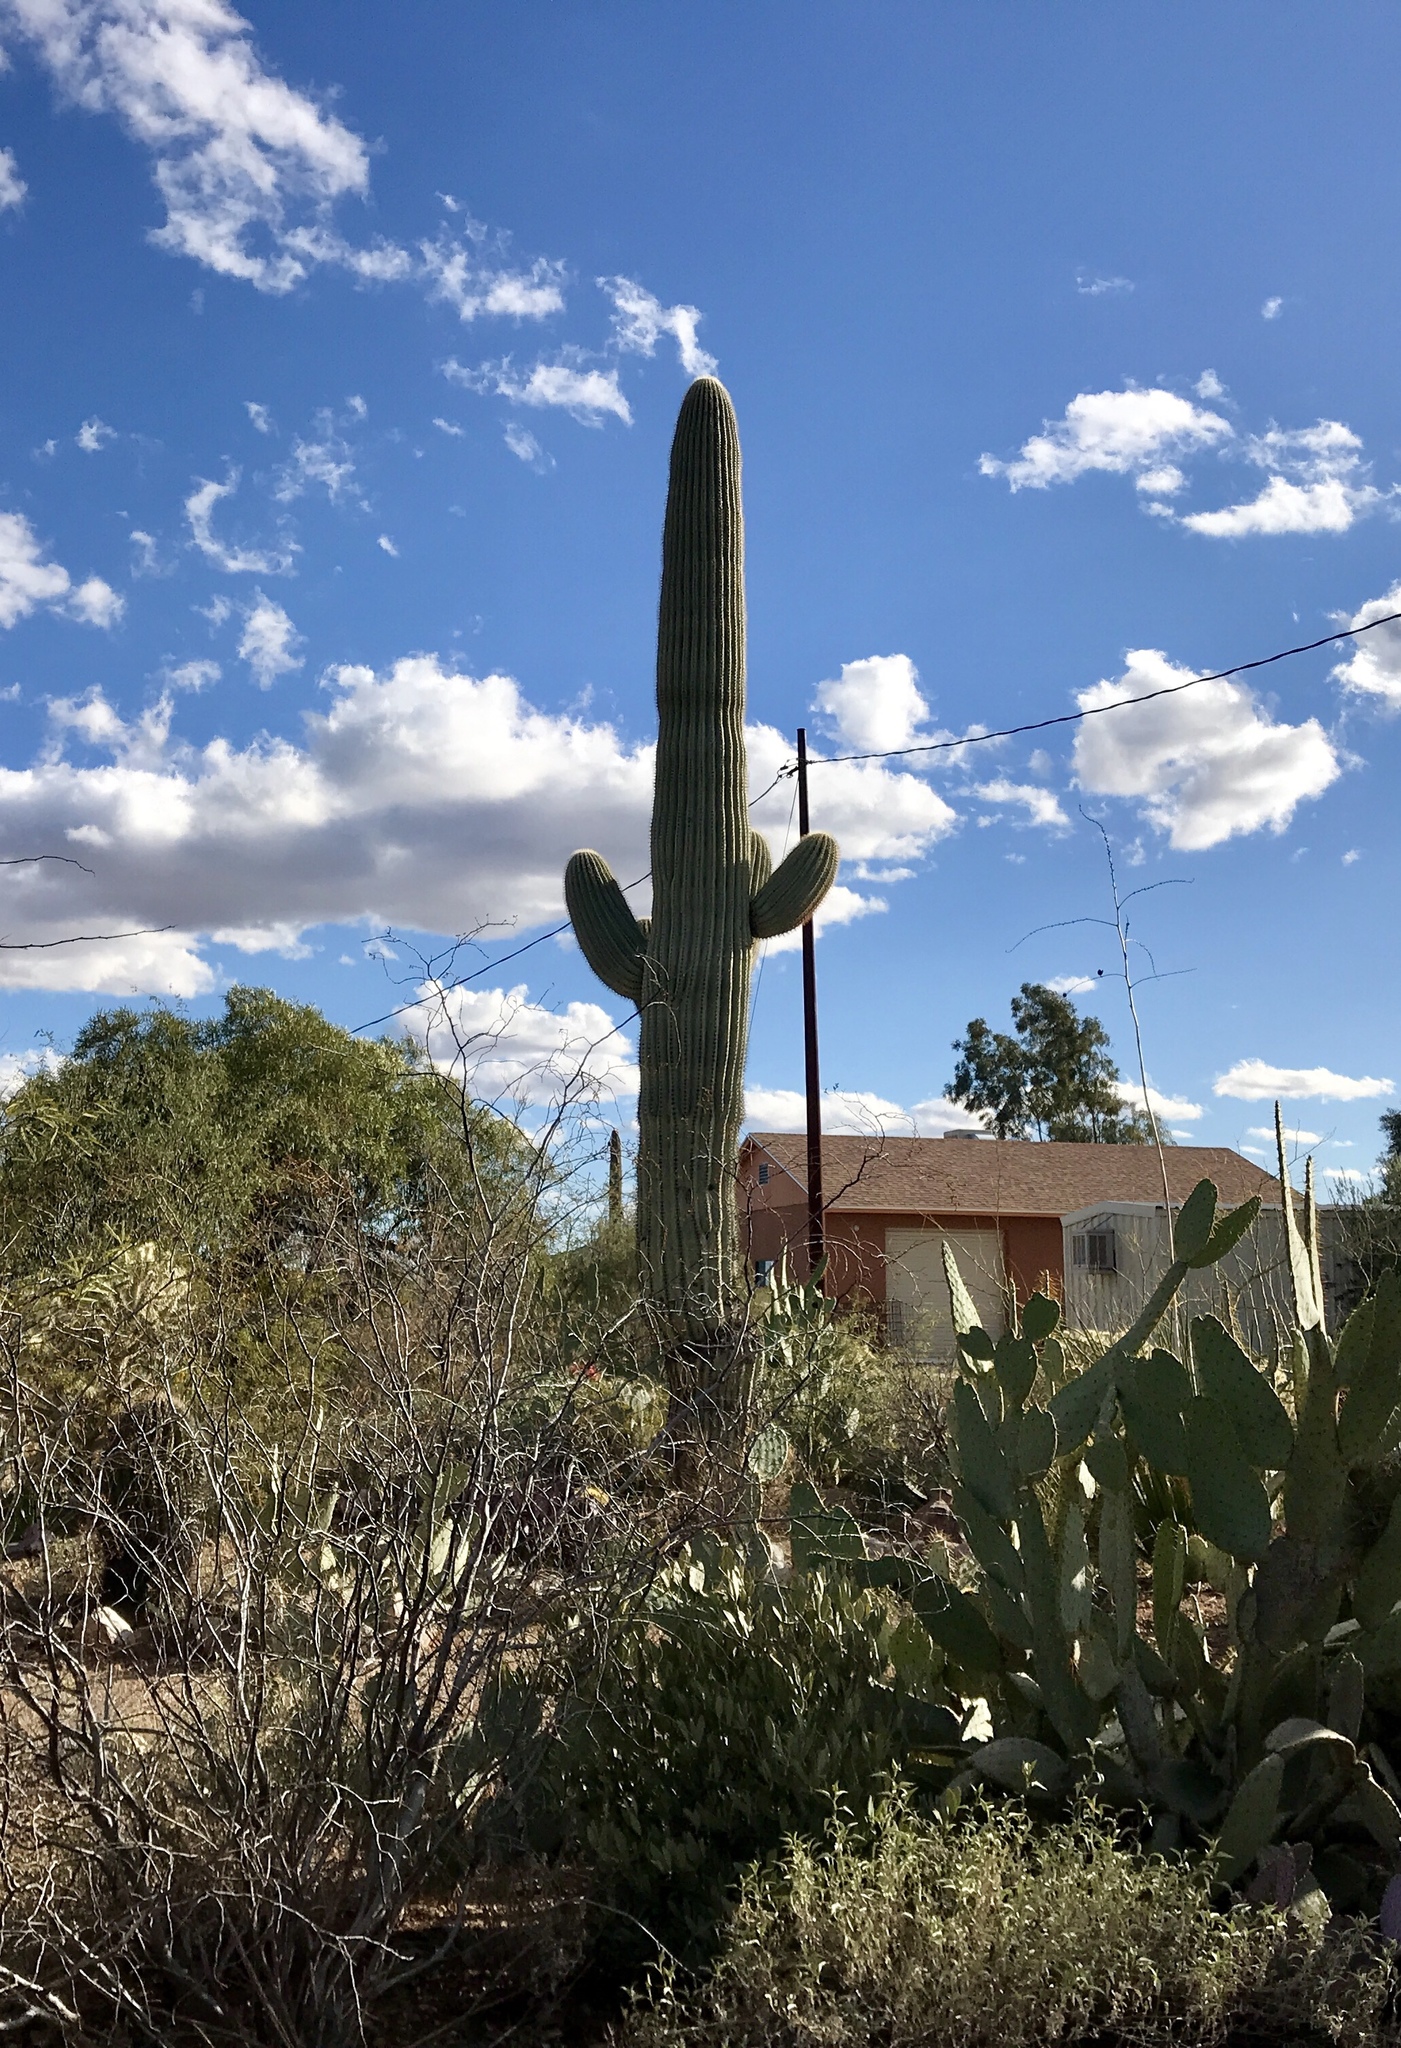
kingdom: Plantae
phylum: Tracheophyta
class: Magnoliopsida
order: Caryophyllales
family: Cactaceae
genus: Carnegiea
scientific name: Carnegiea gigantea
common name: Saguaro
